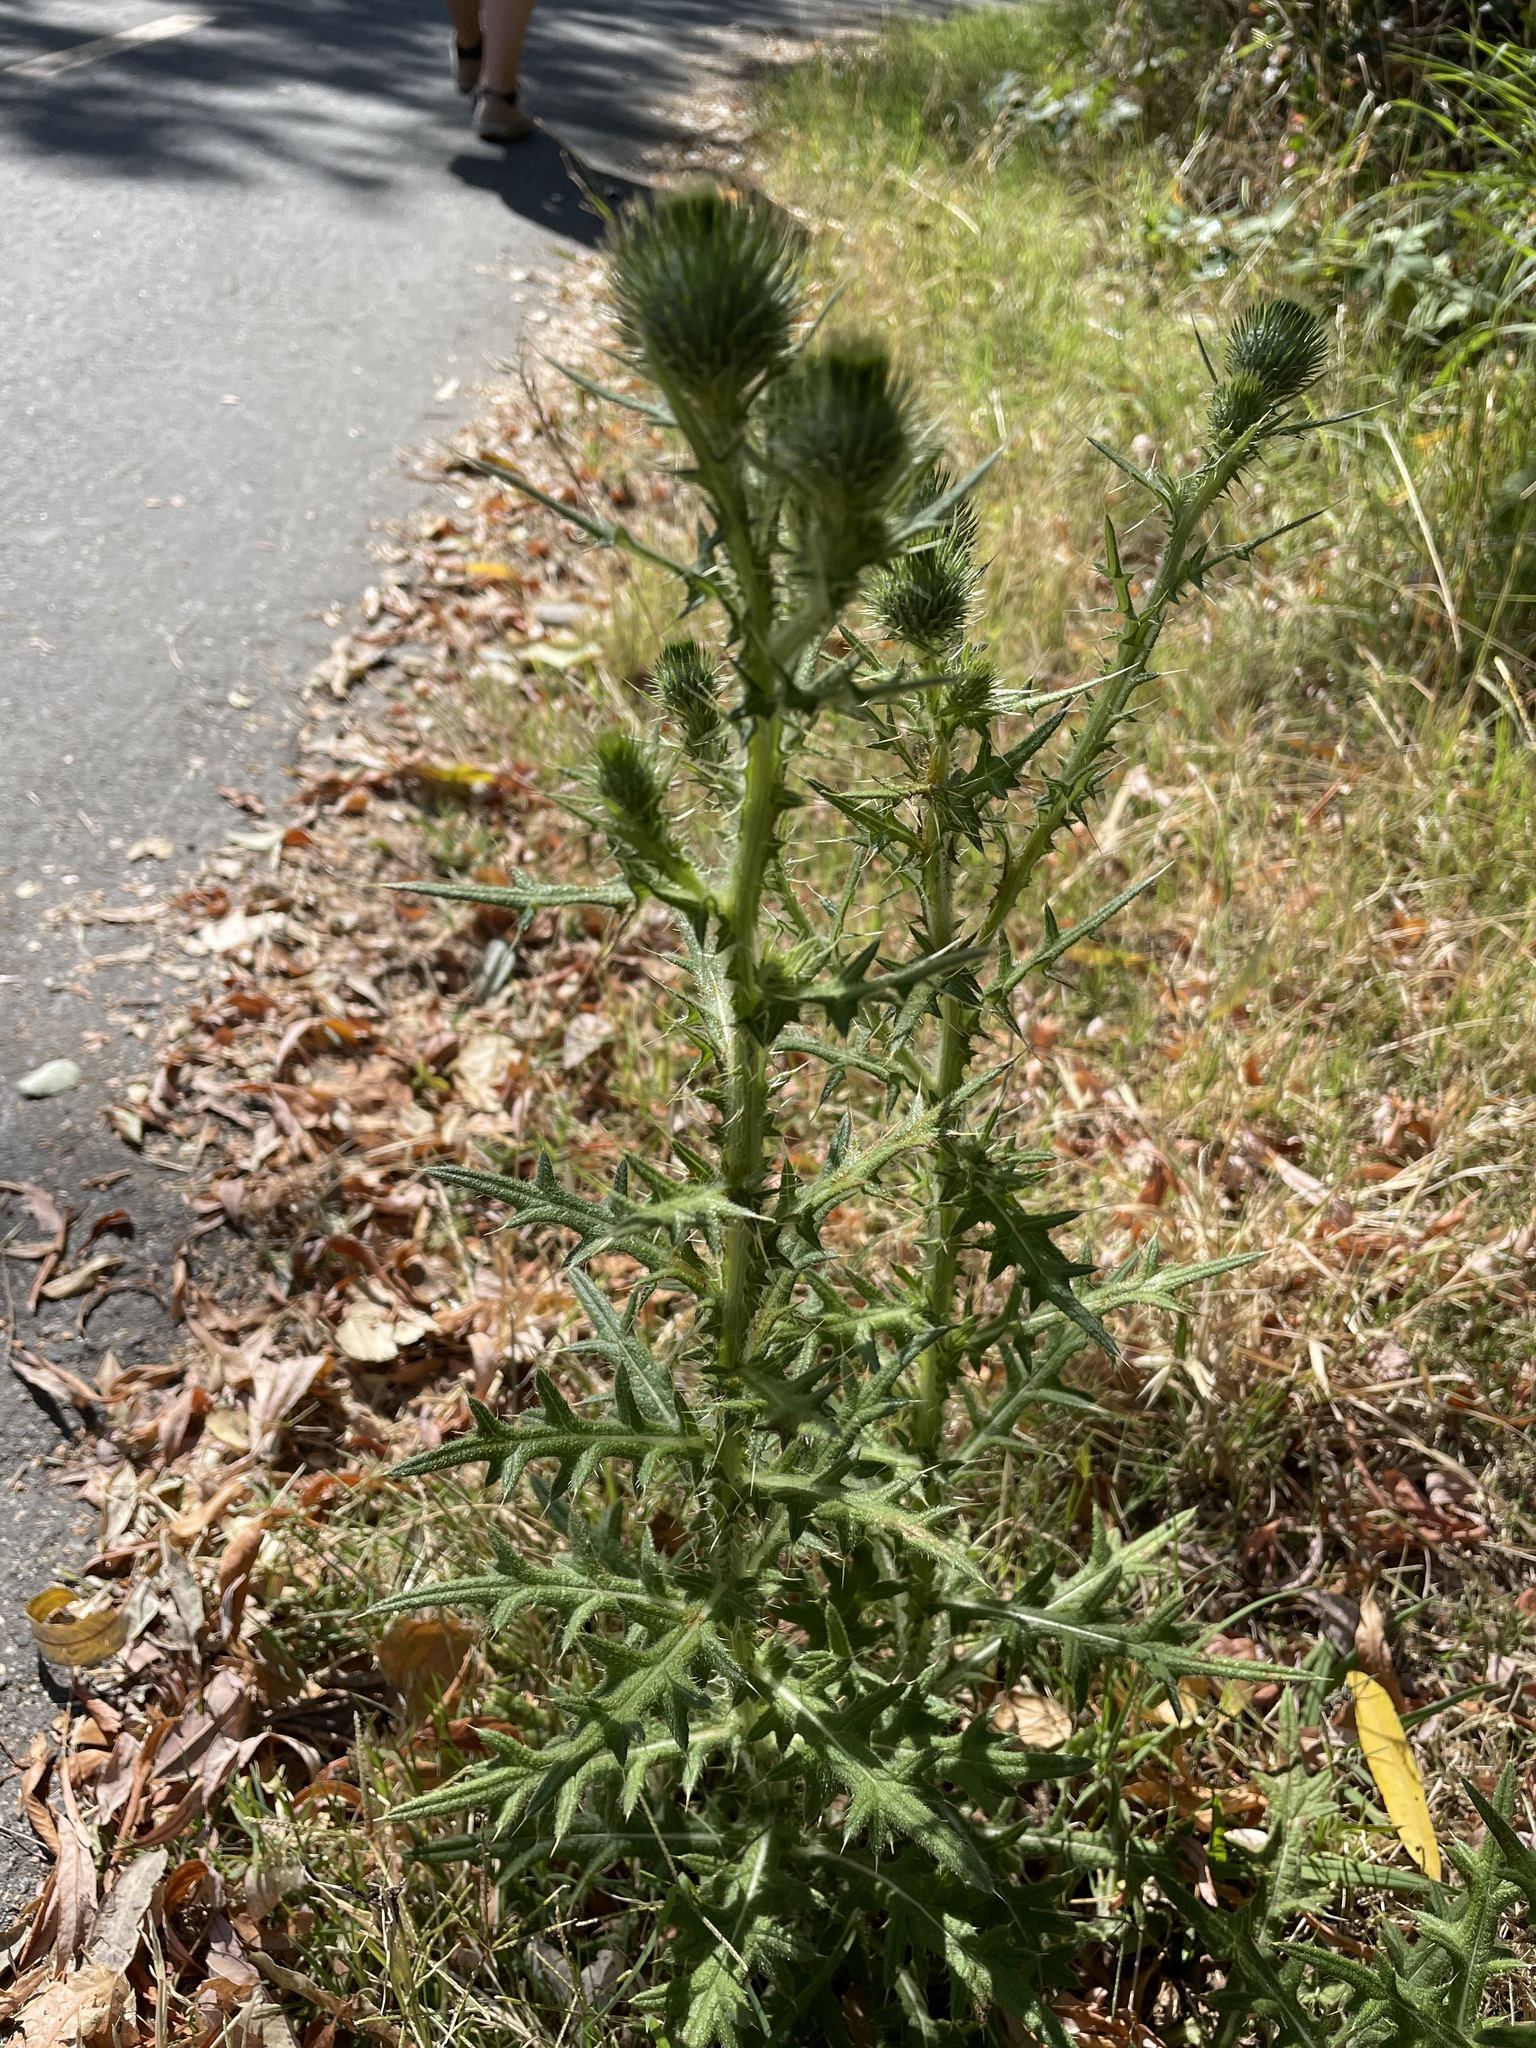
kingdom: Plantae
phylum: Tracheophyta
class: Magnoliopsida
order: Asterales
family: Asteraceae
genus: Cirsium
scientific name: Cirsium vulgare
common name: Bull thistle
